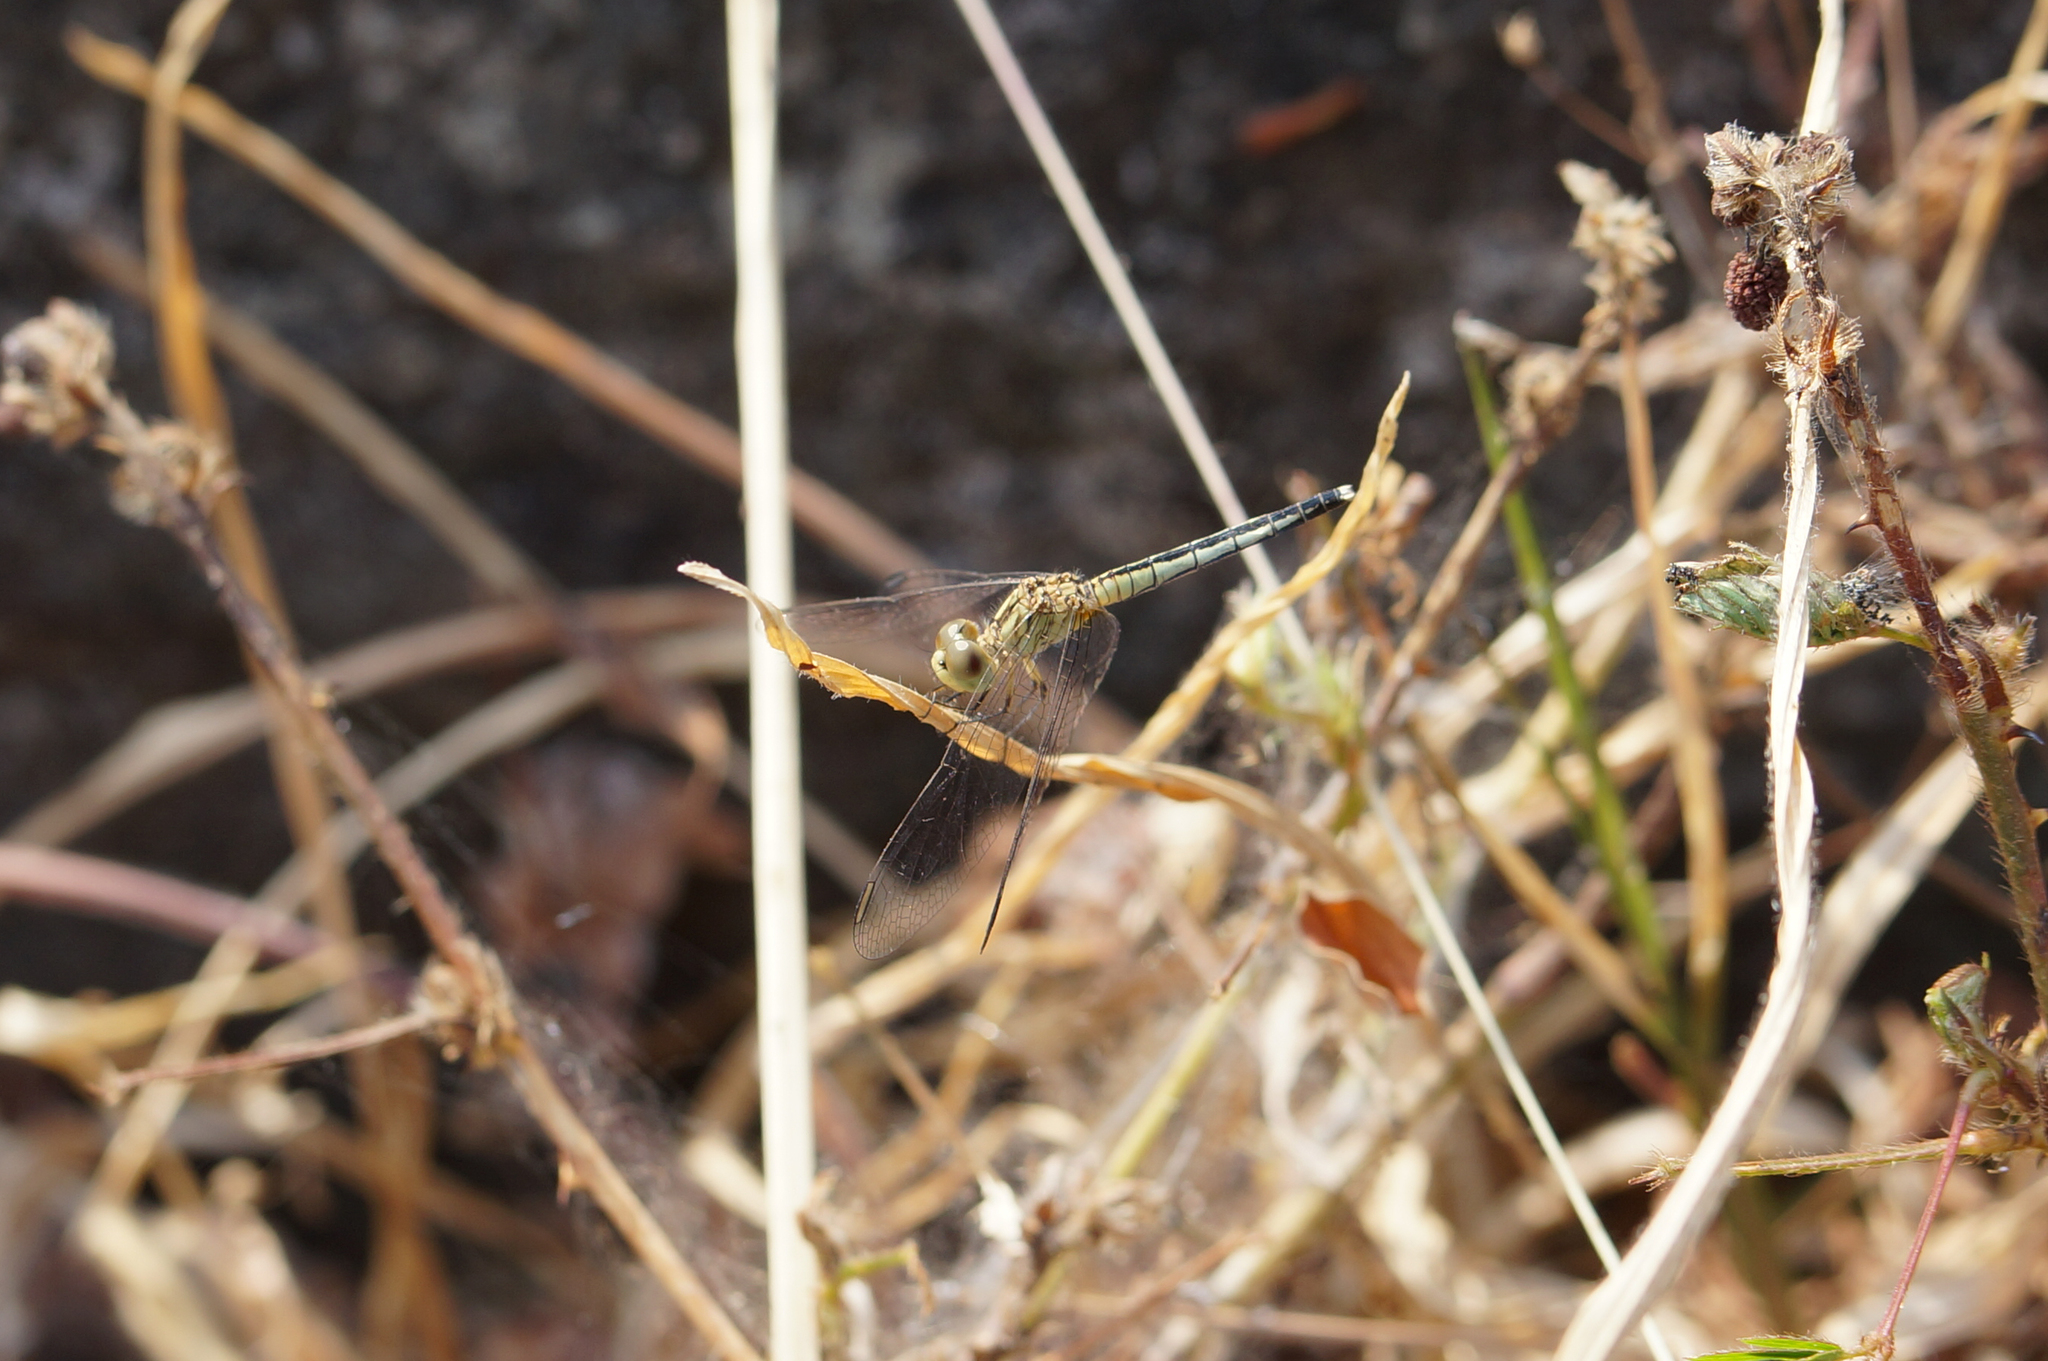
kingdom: Animalia
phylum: Arthropoda
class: Insecta
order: Odonata
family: Libellulidae
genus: Diplacodes
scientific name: Diplacodes trivialis
